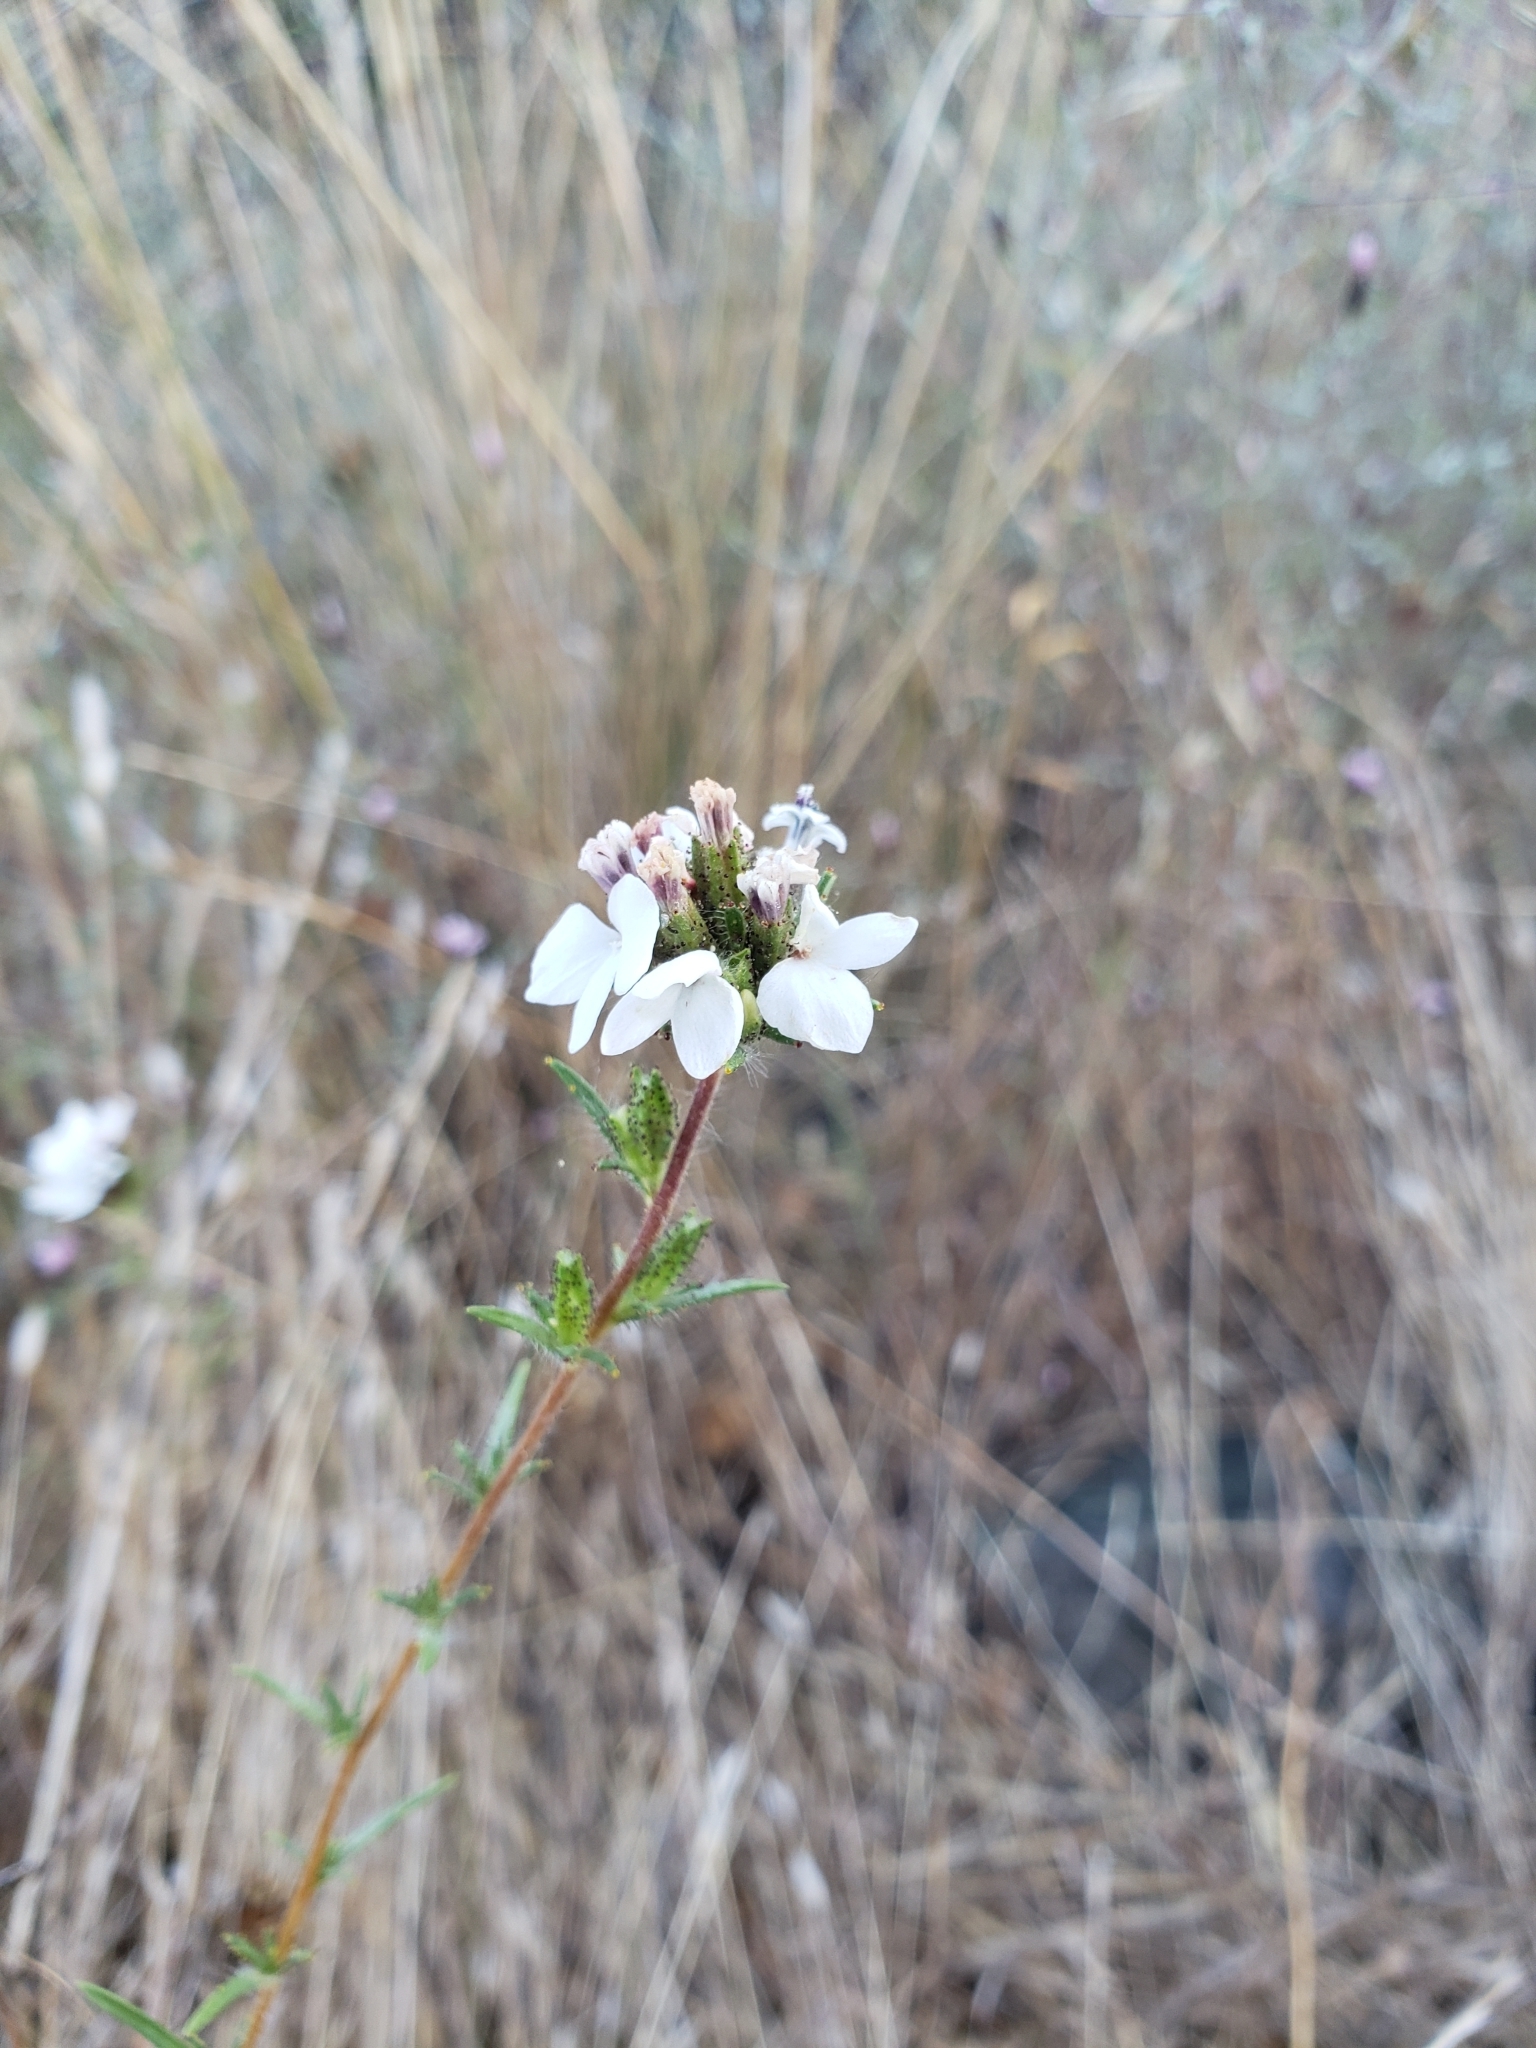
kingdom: Plantae
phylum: Tracheophyta
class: Magnoliopsida
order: Asterales
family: Asteraceae
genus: Calycadenia
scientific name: Calycadenia multiglandulosa
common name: Sticky calycadenia
